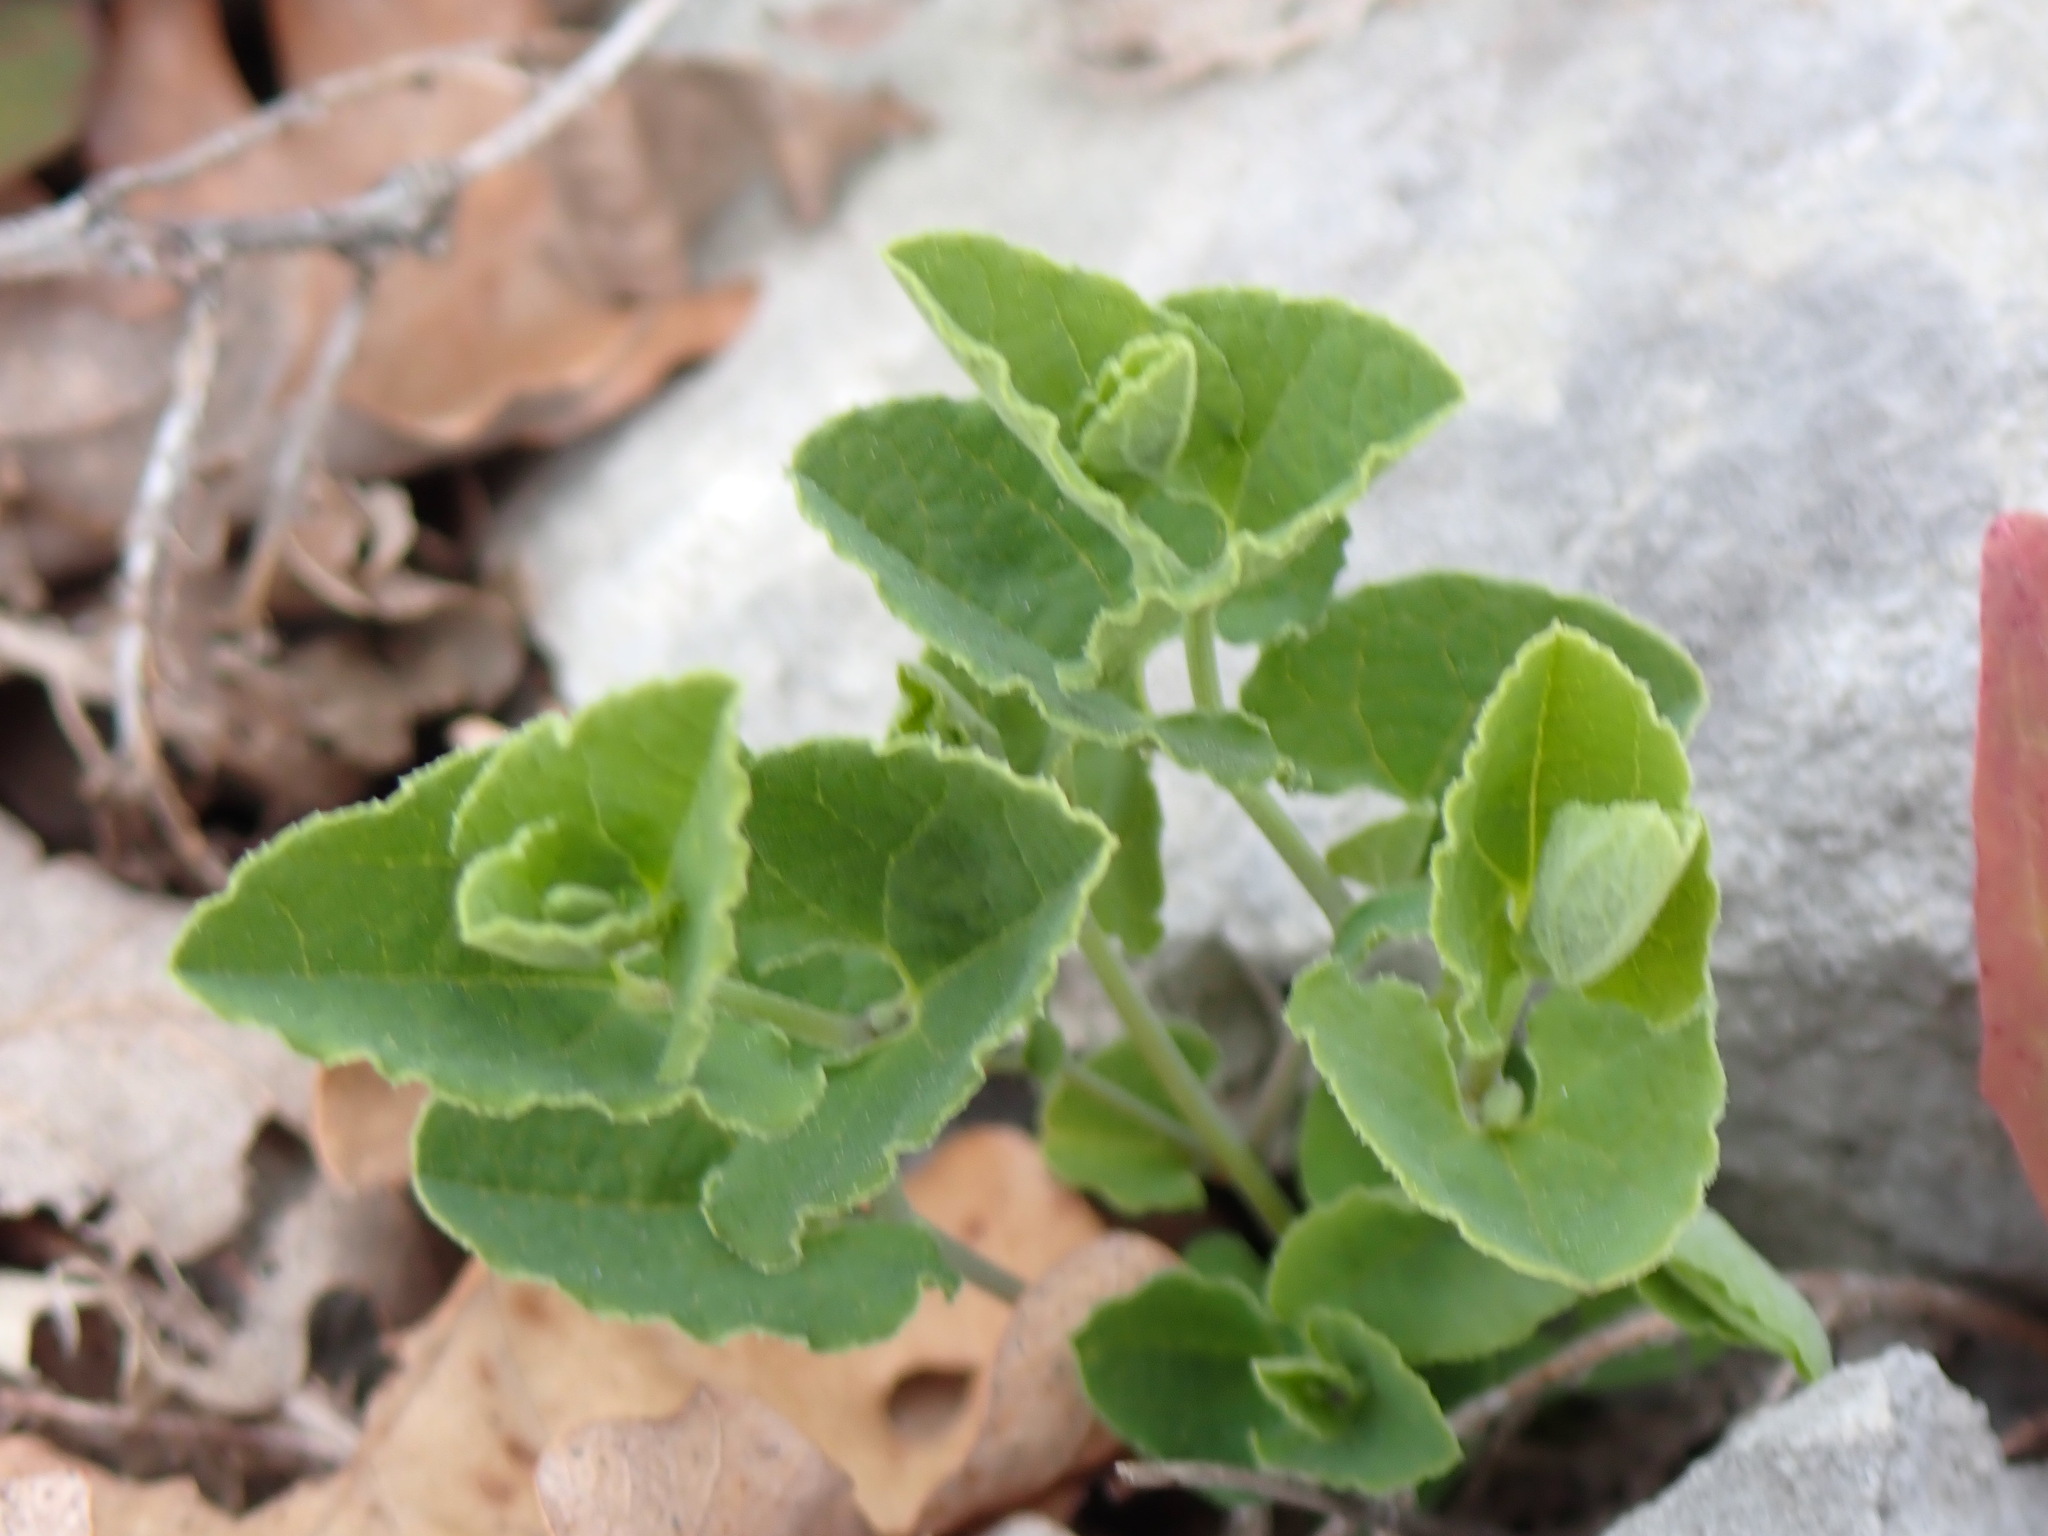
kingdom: Plantae
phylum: Tracheophyta
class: Magnoliopsida
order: Piperales
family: Aristolochiaceae
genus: Aristolochia
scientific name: Aristolochia pistolochia
